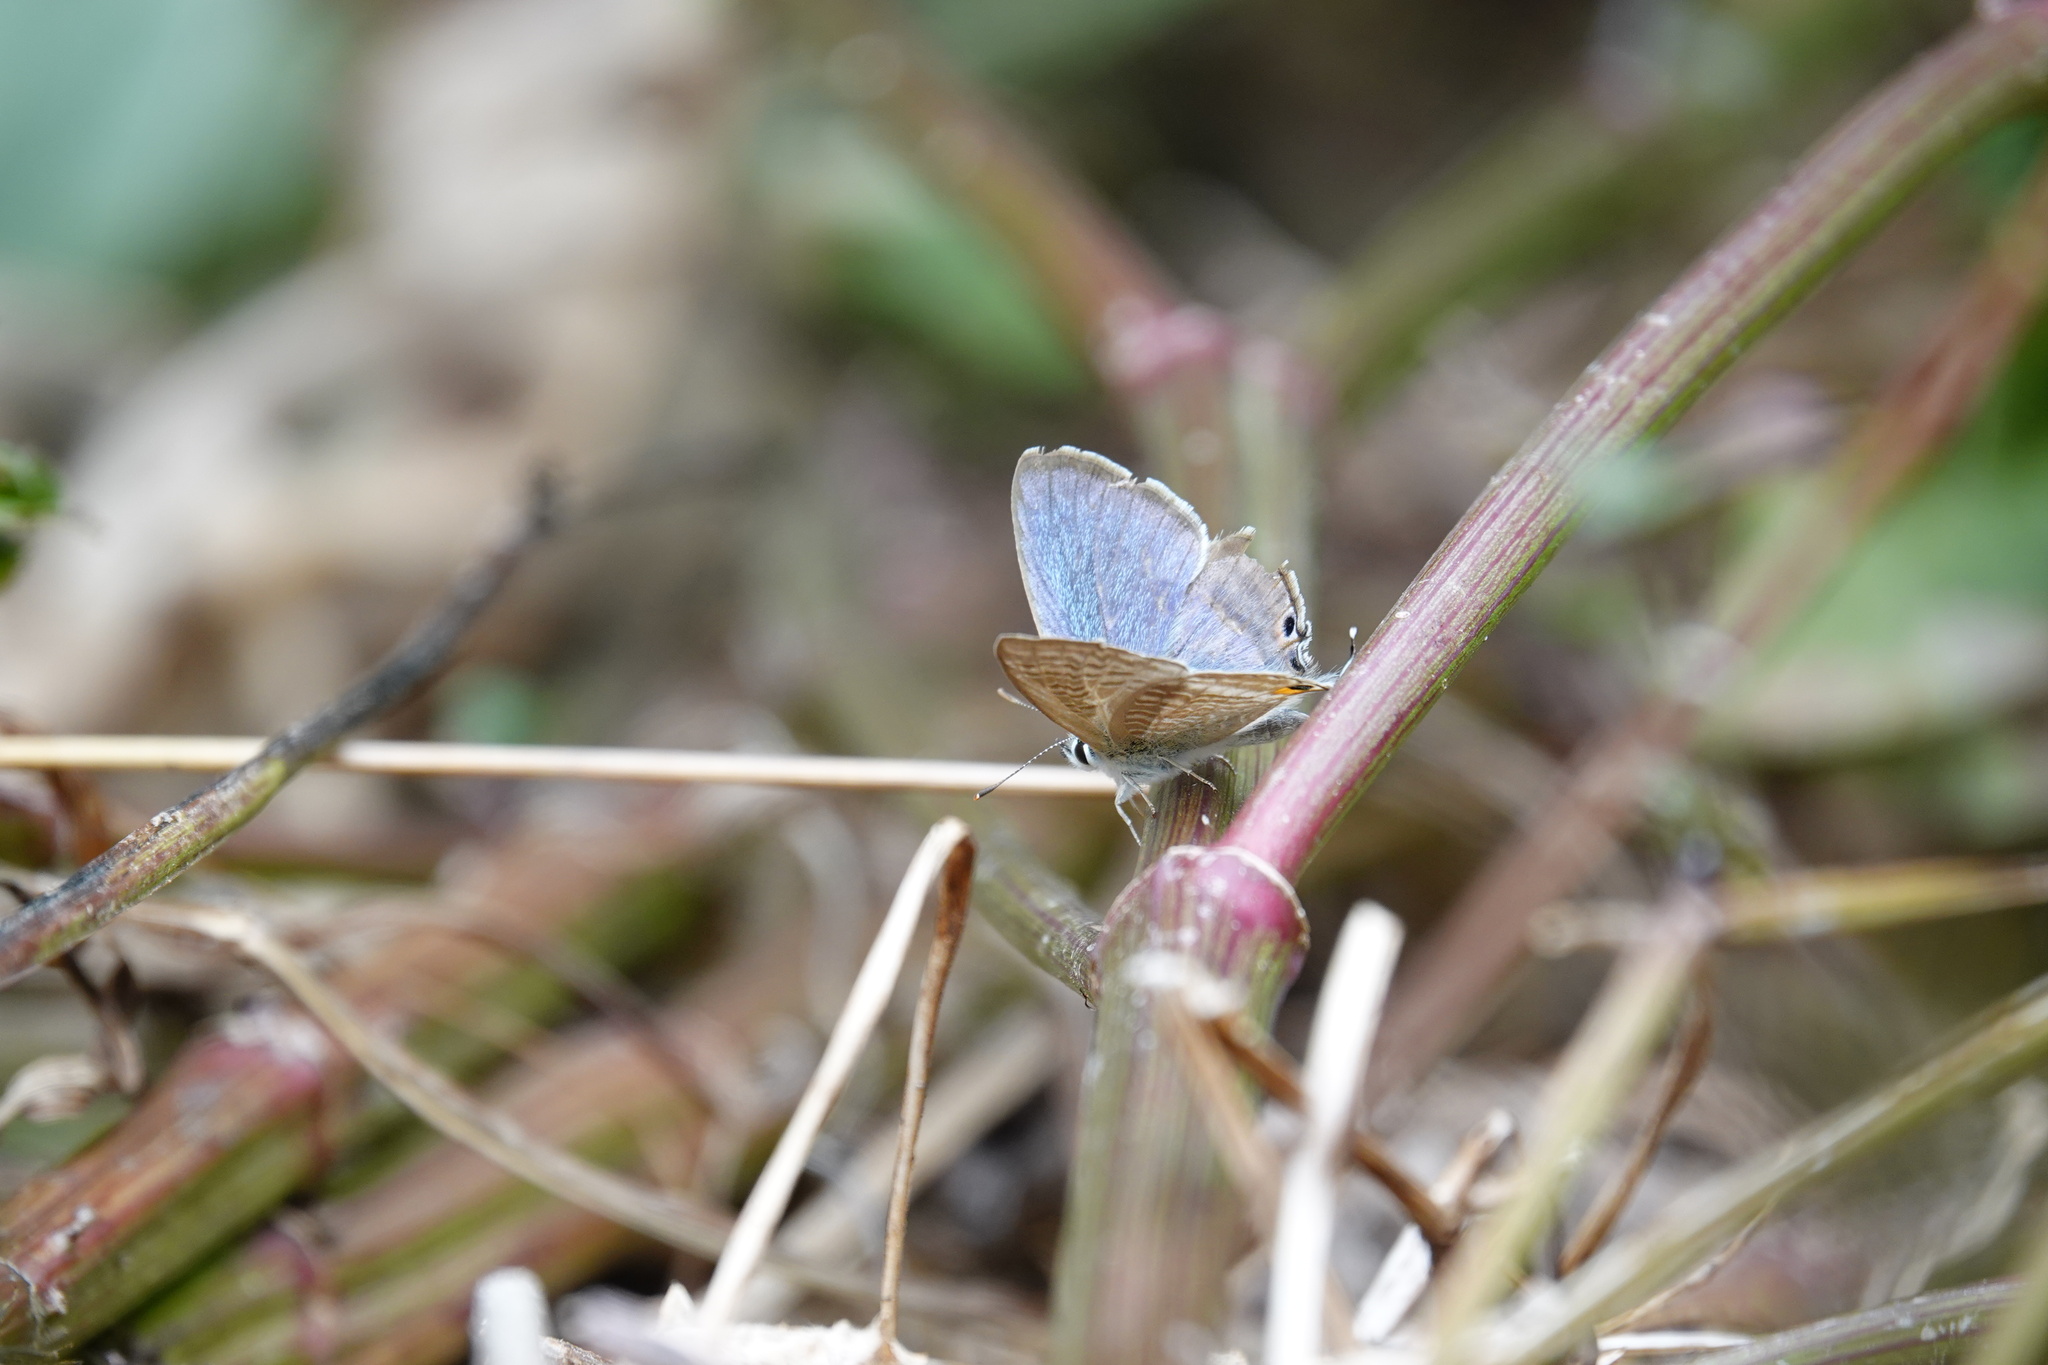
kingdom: Animalia
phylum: Arthropoda
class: Insecta
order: Lepidoptera
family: Lycaenidae
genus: Lampides
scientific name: Lampides boeticus
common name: Long-tailed blue
